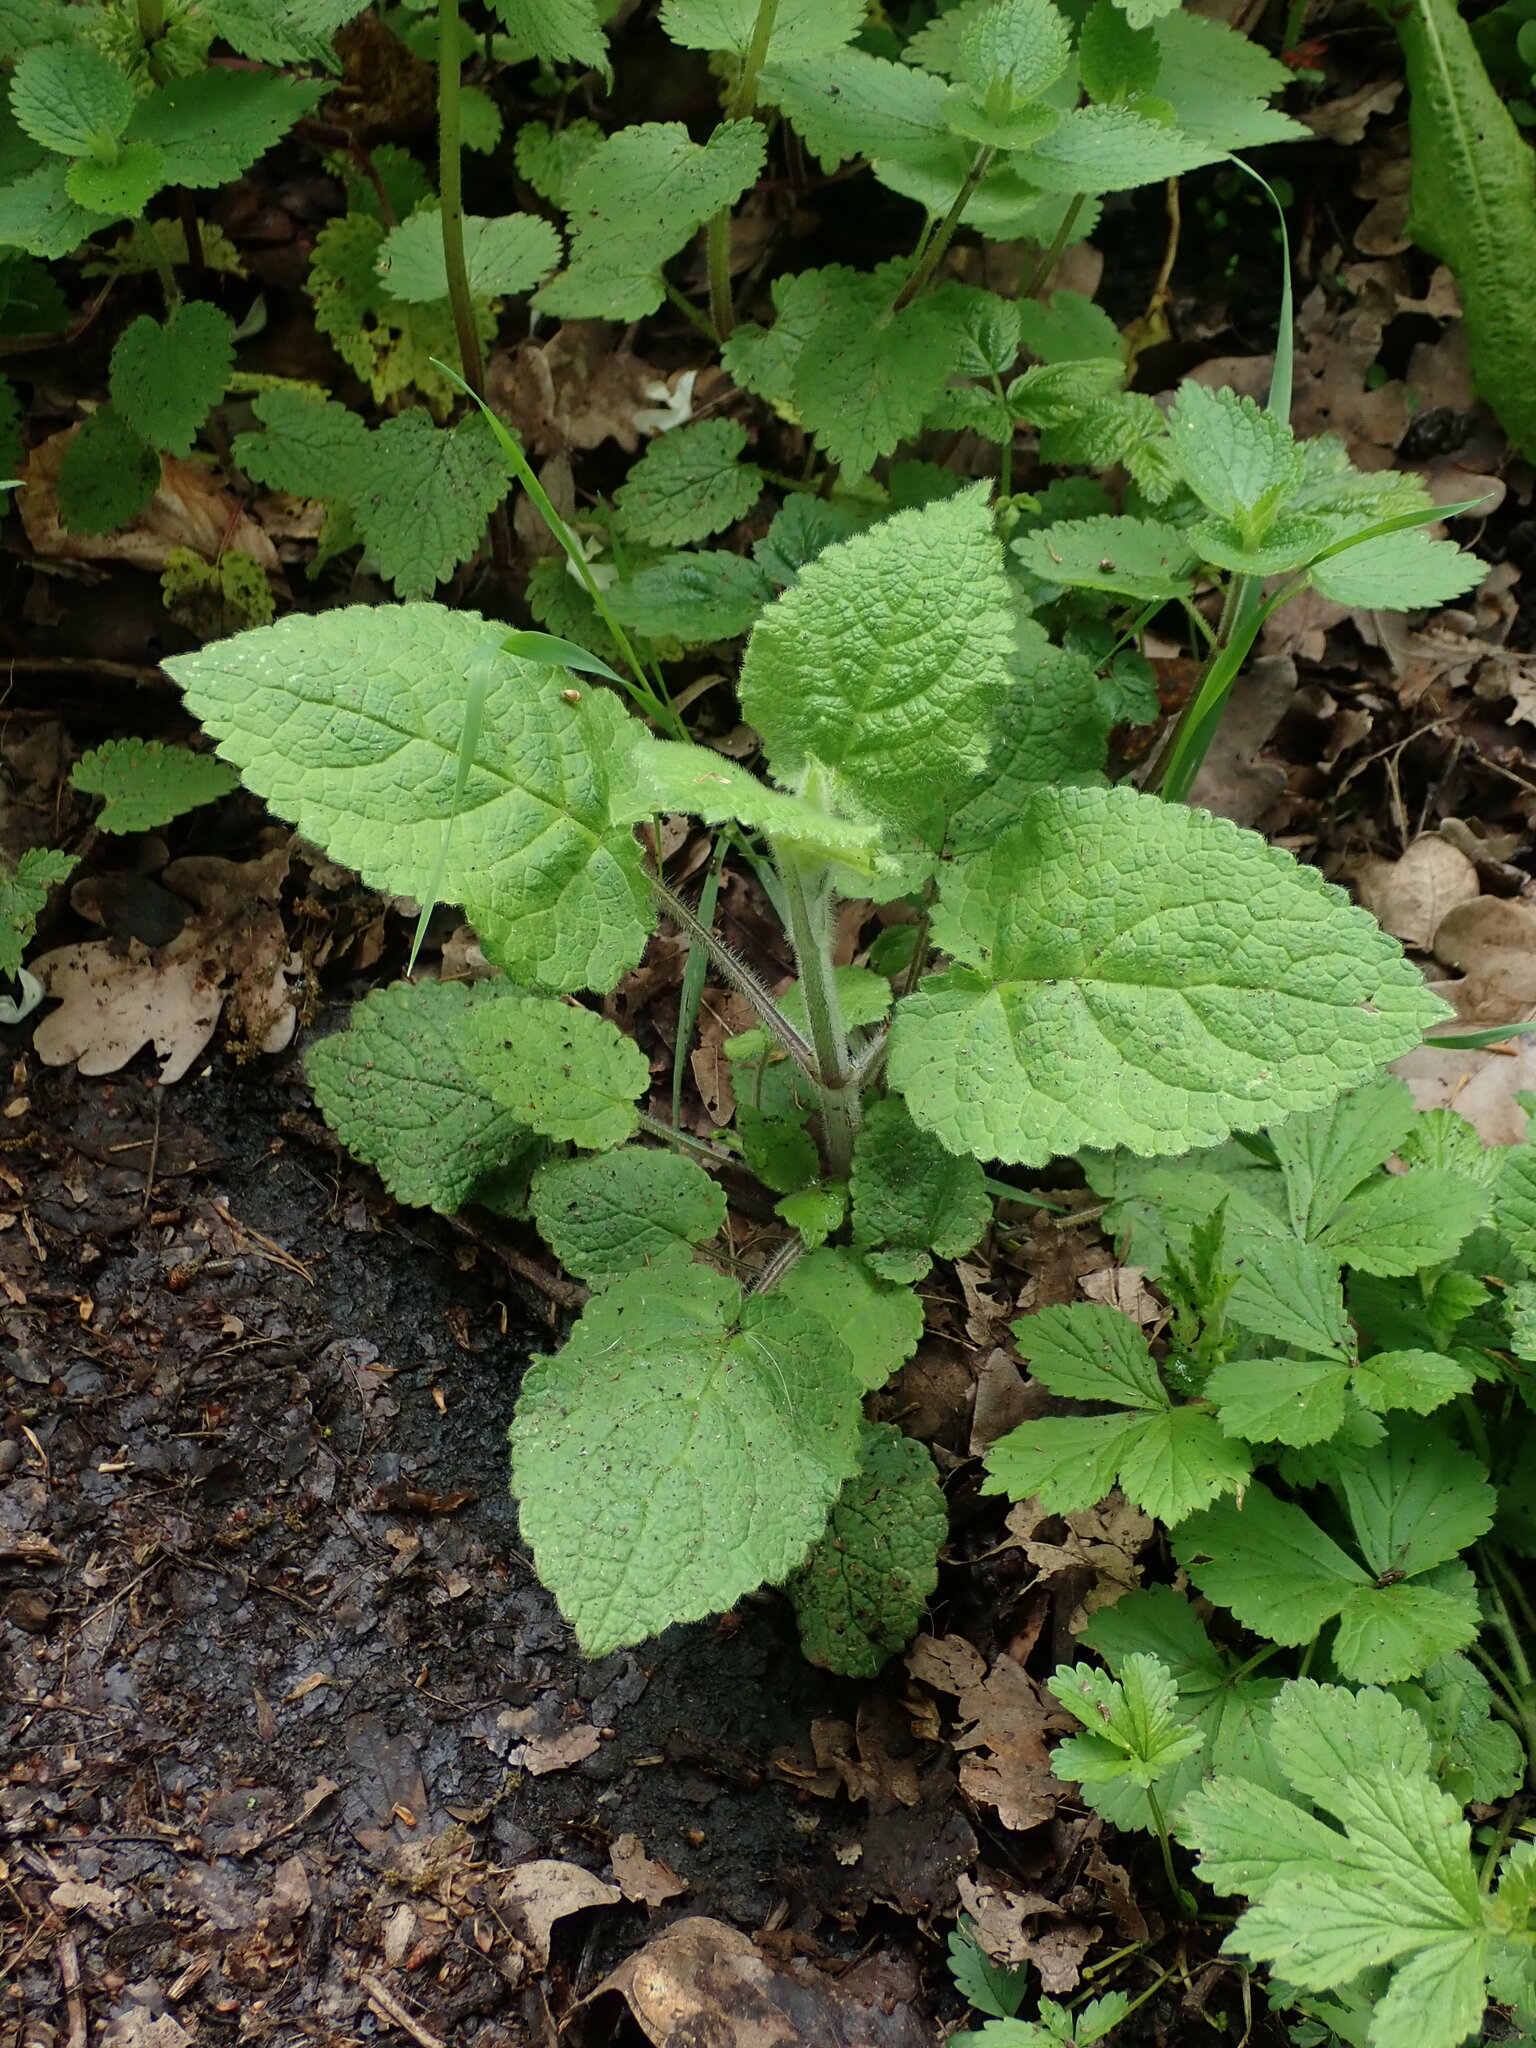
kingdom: Plantae
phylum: Tracheophyta
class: Magnoliopsida
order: Lamiales
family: Lamiaceae
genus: Stachys
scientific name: Stachys sylvatica
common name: Hedge woundwort
